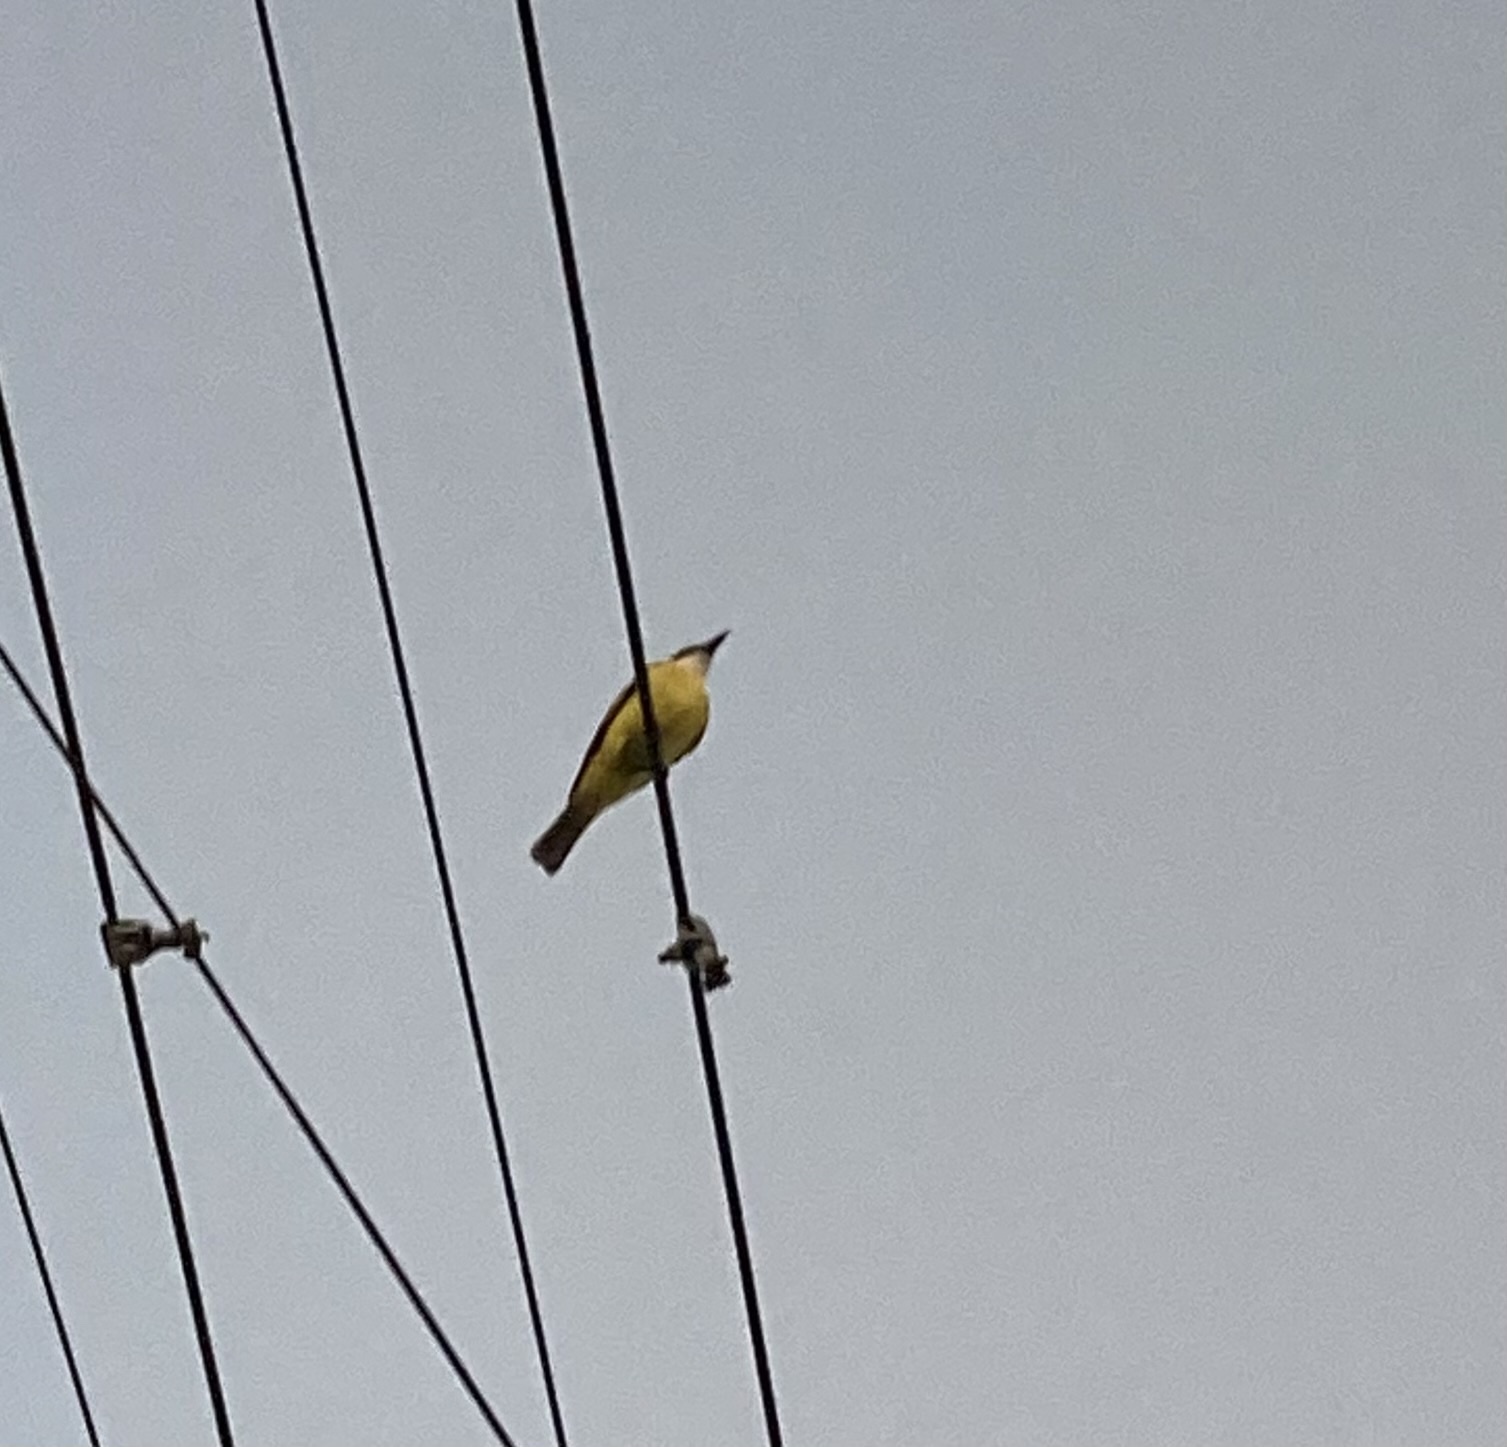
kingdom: Animalia
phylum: Chordata
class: Aves
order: Passeriformes
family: Tyrannidae
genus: Pitangus
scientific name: Pitangus sulphuratus
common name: Great kiskadee
